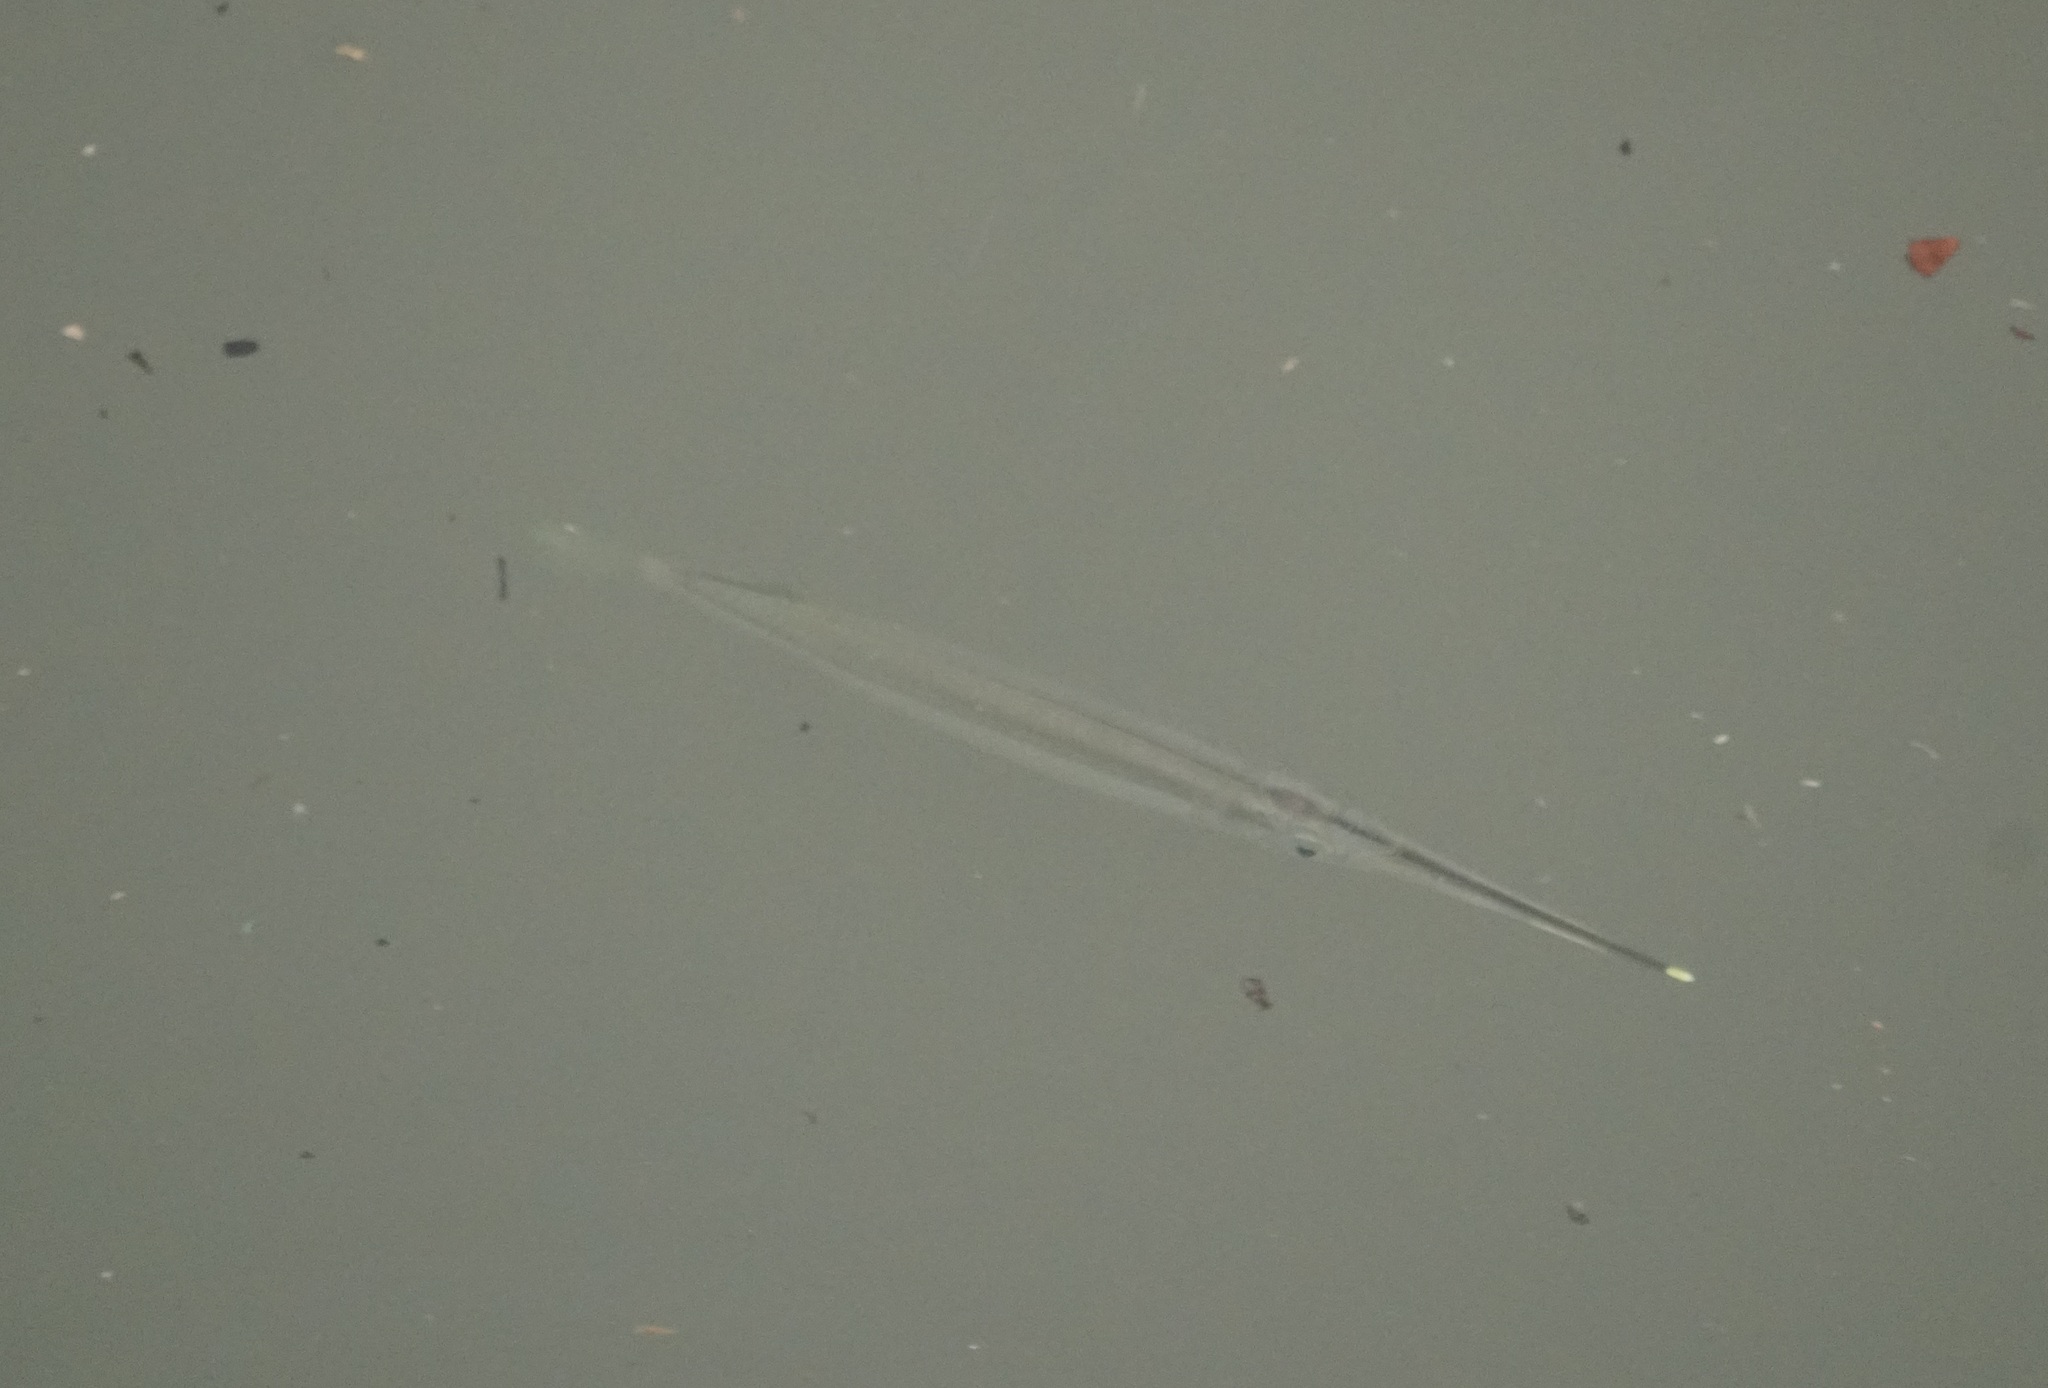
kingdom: Animalia
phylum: Chordata
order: Beloniformes
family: Zenarchopteridae
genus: Zenarchopterus
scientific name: Zenarchopterus buffonis
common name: Buffon's river-garfish
